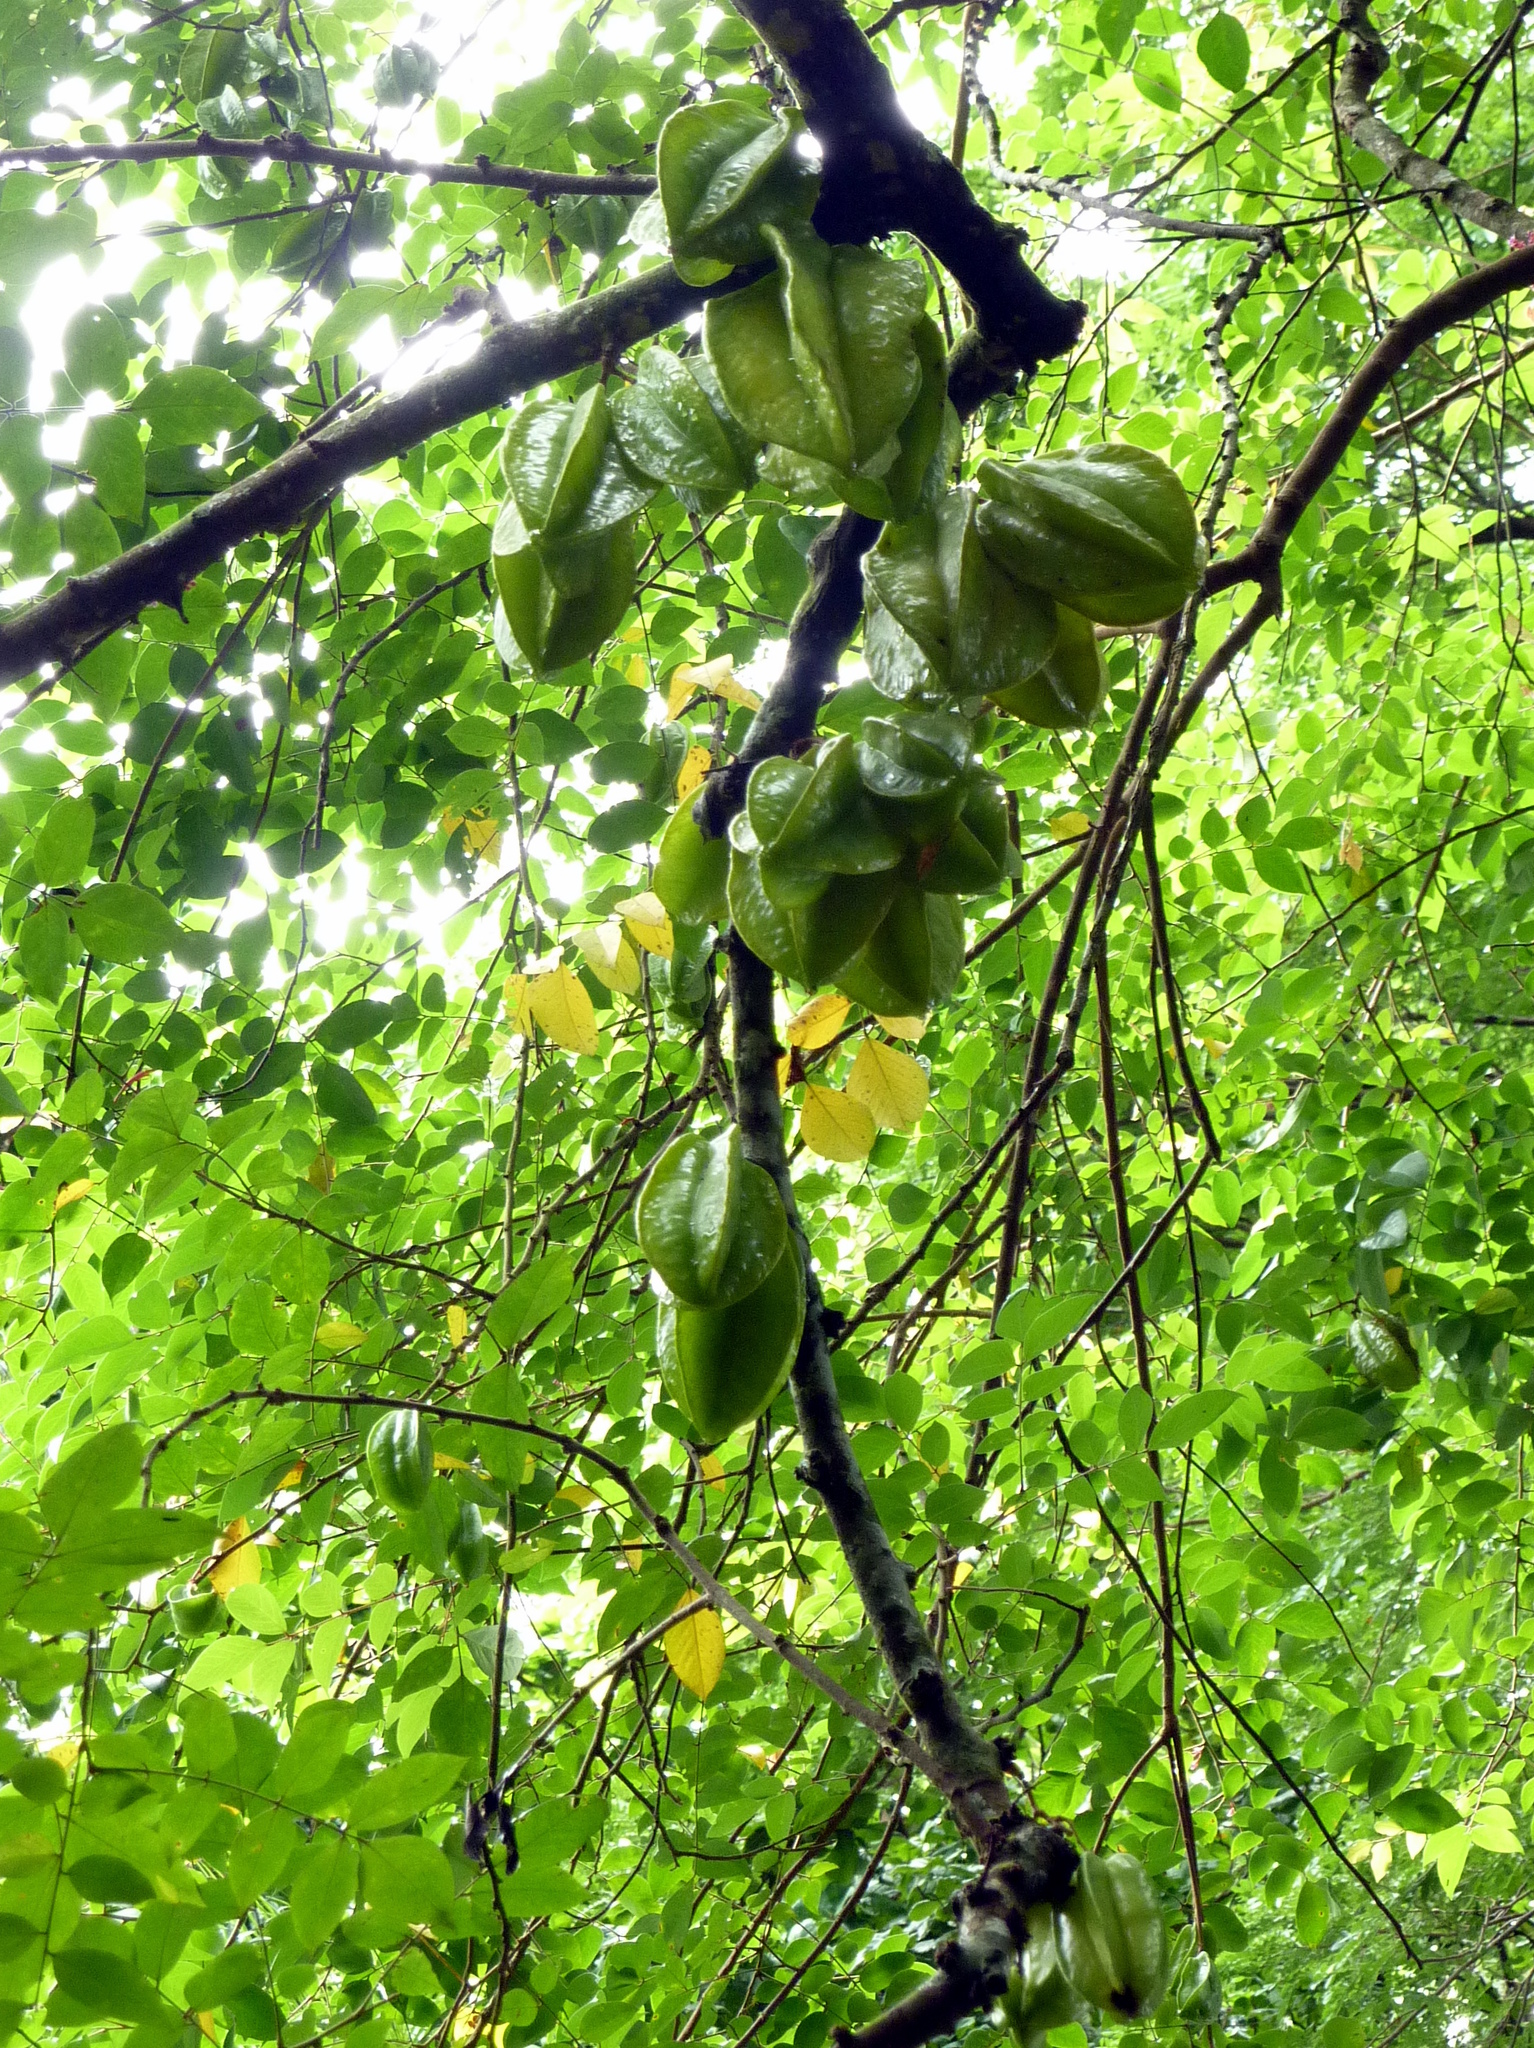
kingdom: Plantae
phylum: Tracheophyta
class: Magnoliopsida
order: Oxalidales
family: Oxalidaceae
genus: Averrhoa
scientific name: Averrhoa carambola
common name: Blimbing
